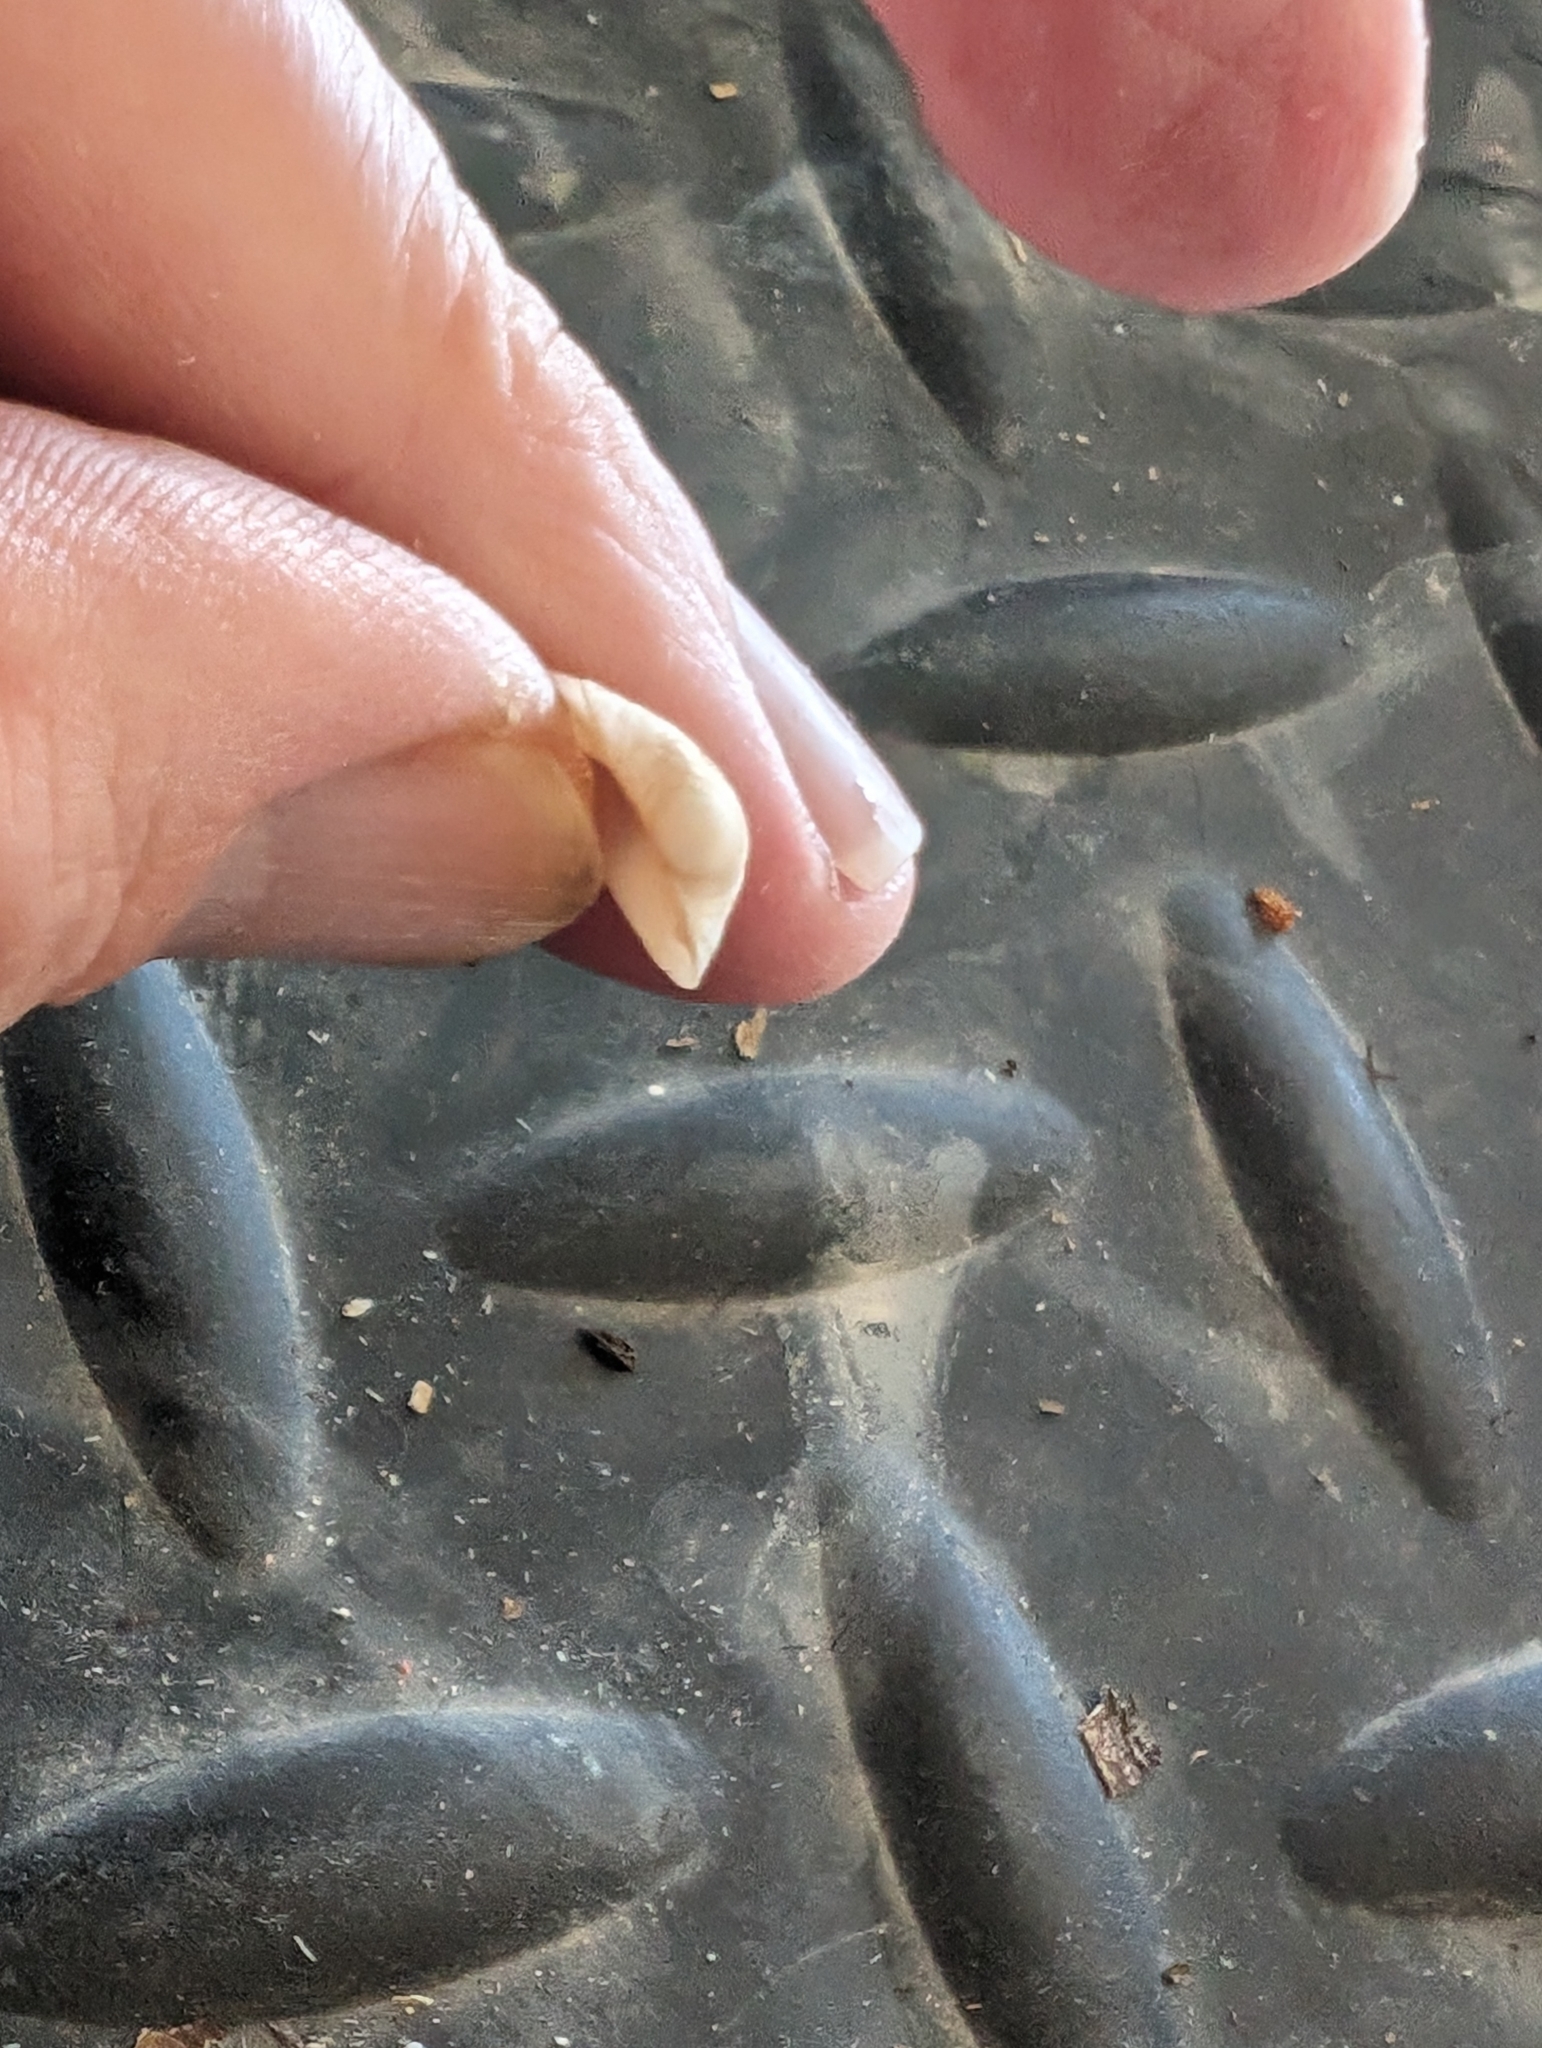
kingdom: Animalia
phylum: Mollusca
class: Bivalvia
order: Sphaeriida
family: Sphaeriidae
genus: Sphaerium
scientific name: Sphaerium striatinum
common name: Striated fingernailclam
